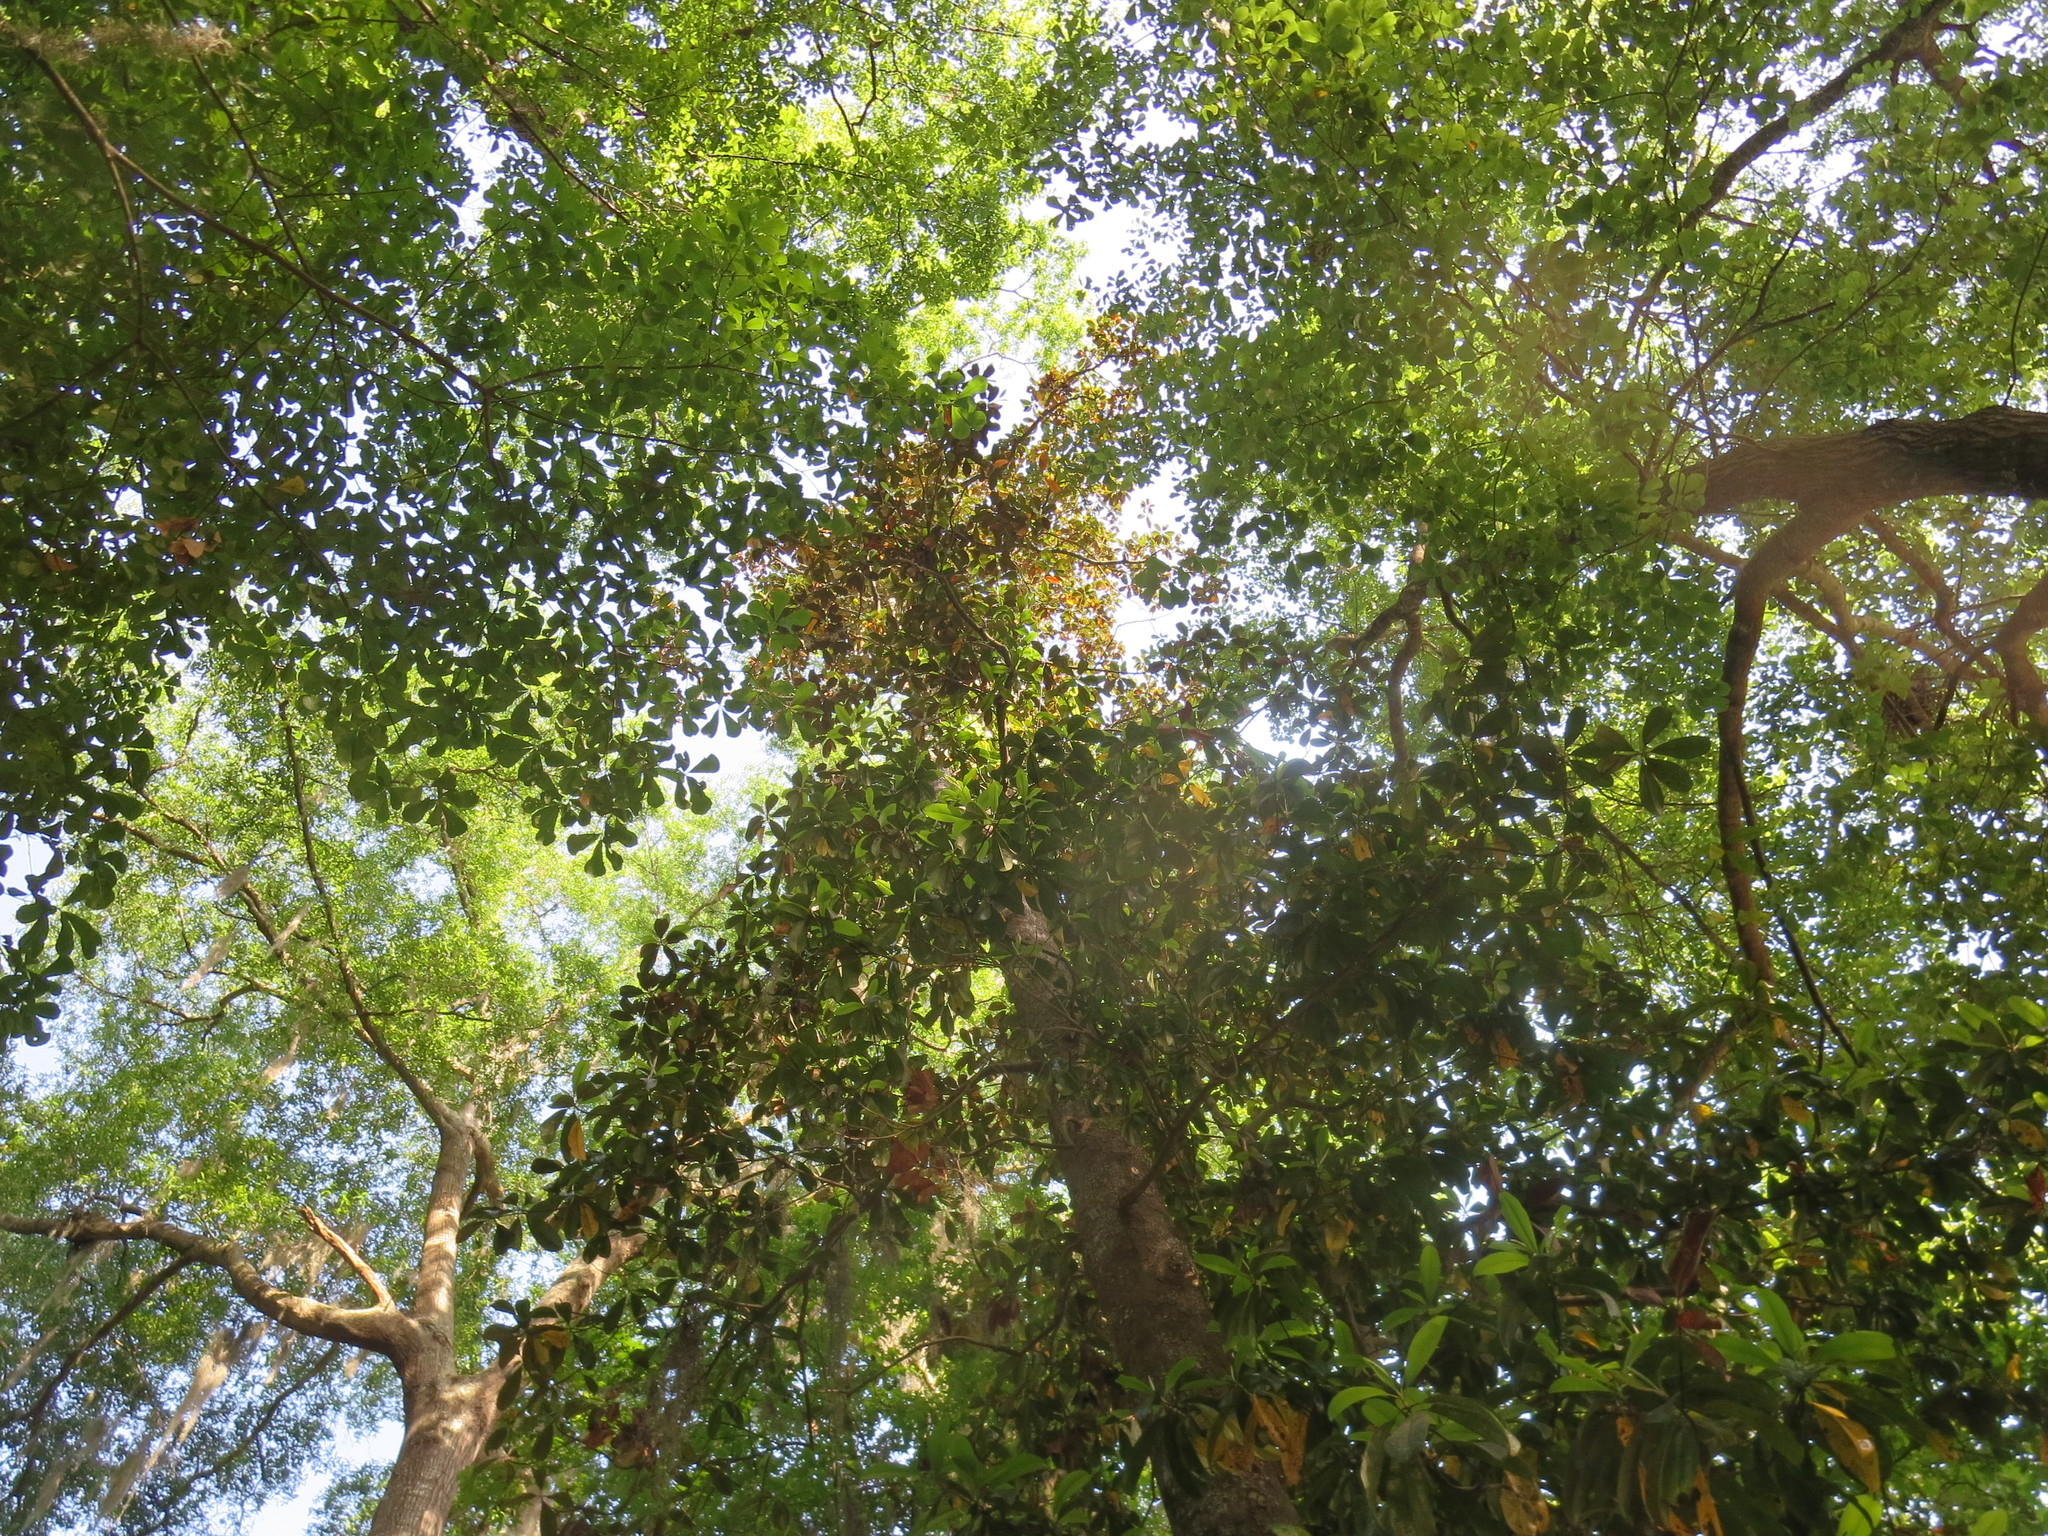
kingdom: Plantae
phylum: Tracheophyta
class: Magnoliopsida
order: Magnoliales
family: Magnoliaceae
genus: Magnolia
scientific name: Magnolia grandiflora
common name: Southern magnolia
